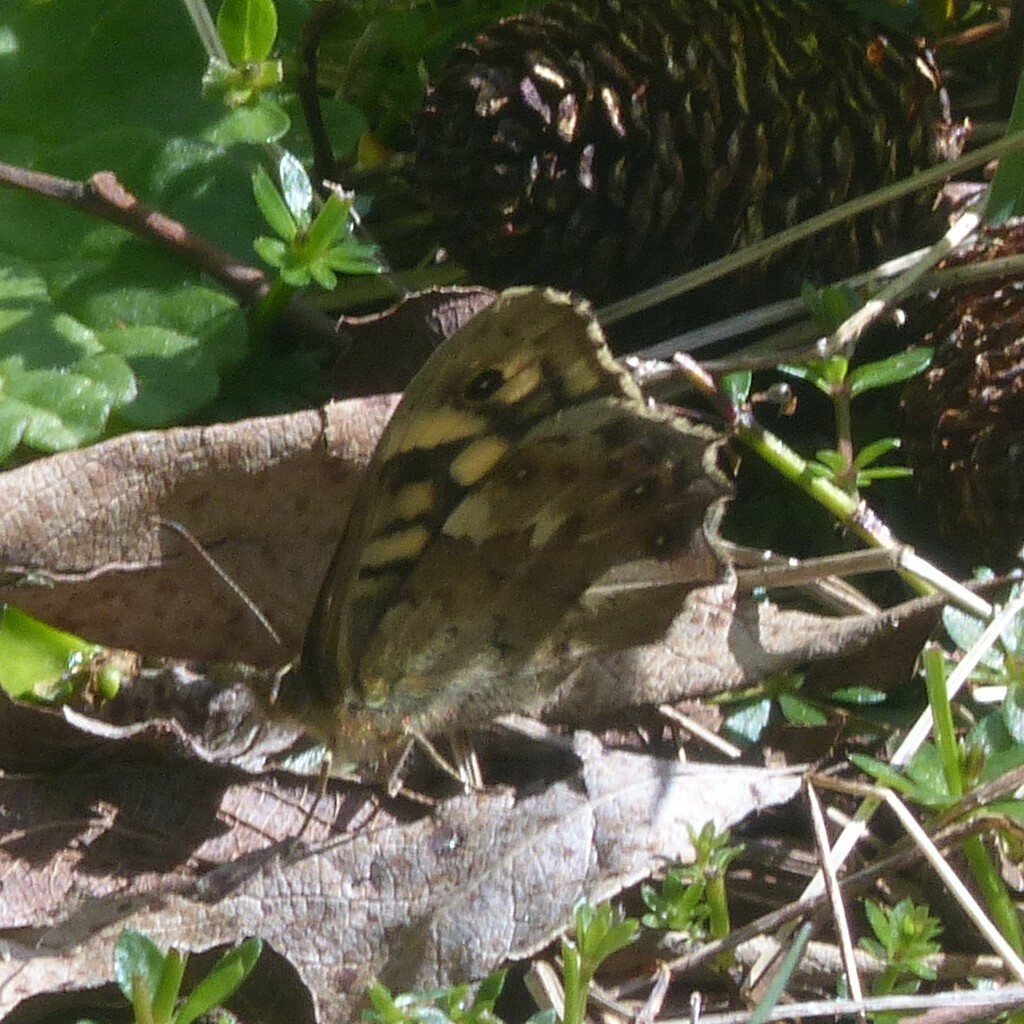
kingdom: Animalia
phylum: Arthropoda
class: Insecta
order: Lepidoptera
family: Nymphalidae
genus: Pararge
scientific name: Pararge aegeria
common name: Speckled wood
